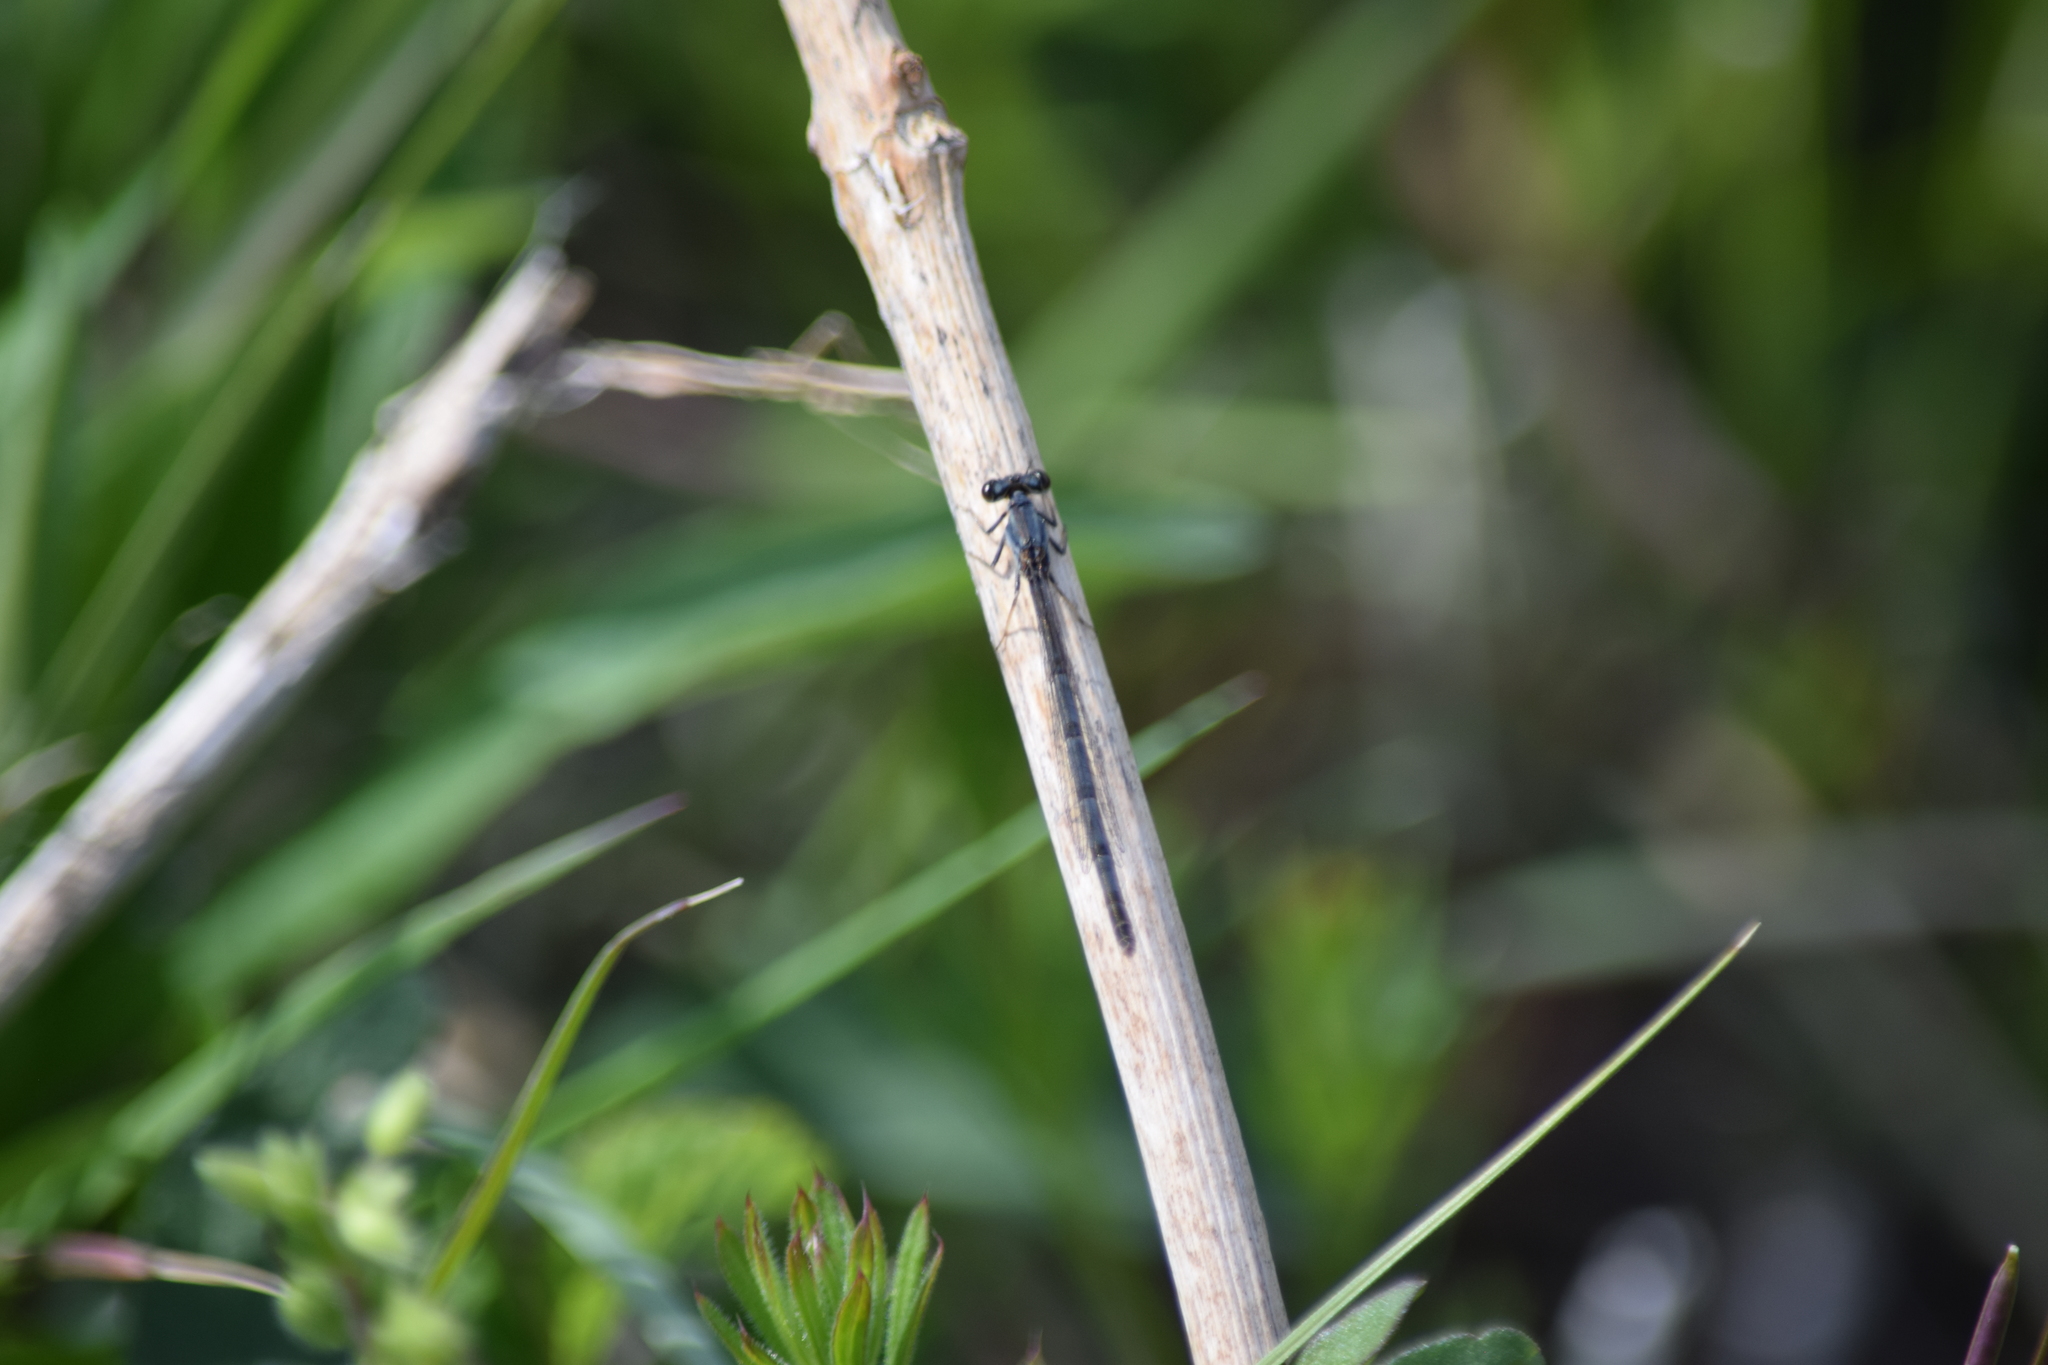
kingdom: Animalia
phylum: Arthropoda
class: Insecta
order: Odonata
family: Coenagrionidae
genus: Ischnura
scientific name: Ischnura verticalis
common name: Eastern forktail
